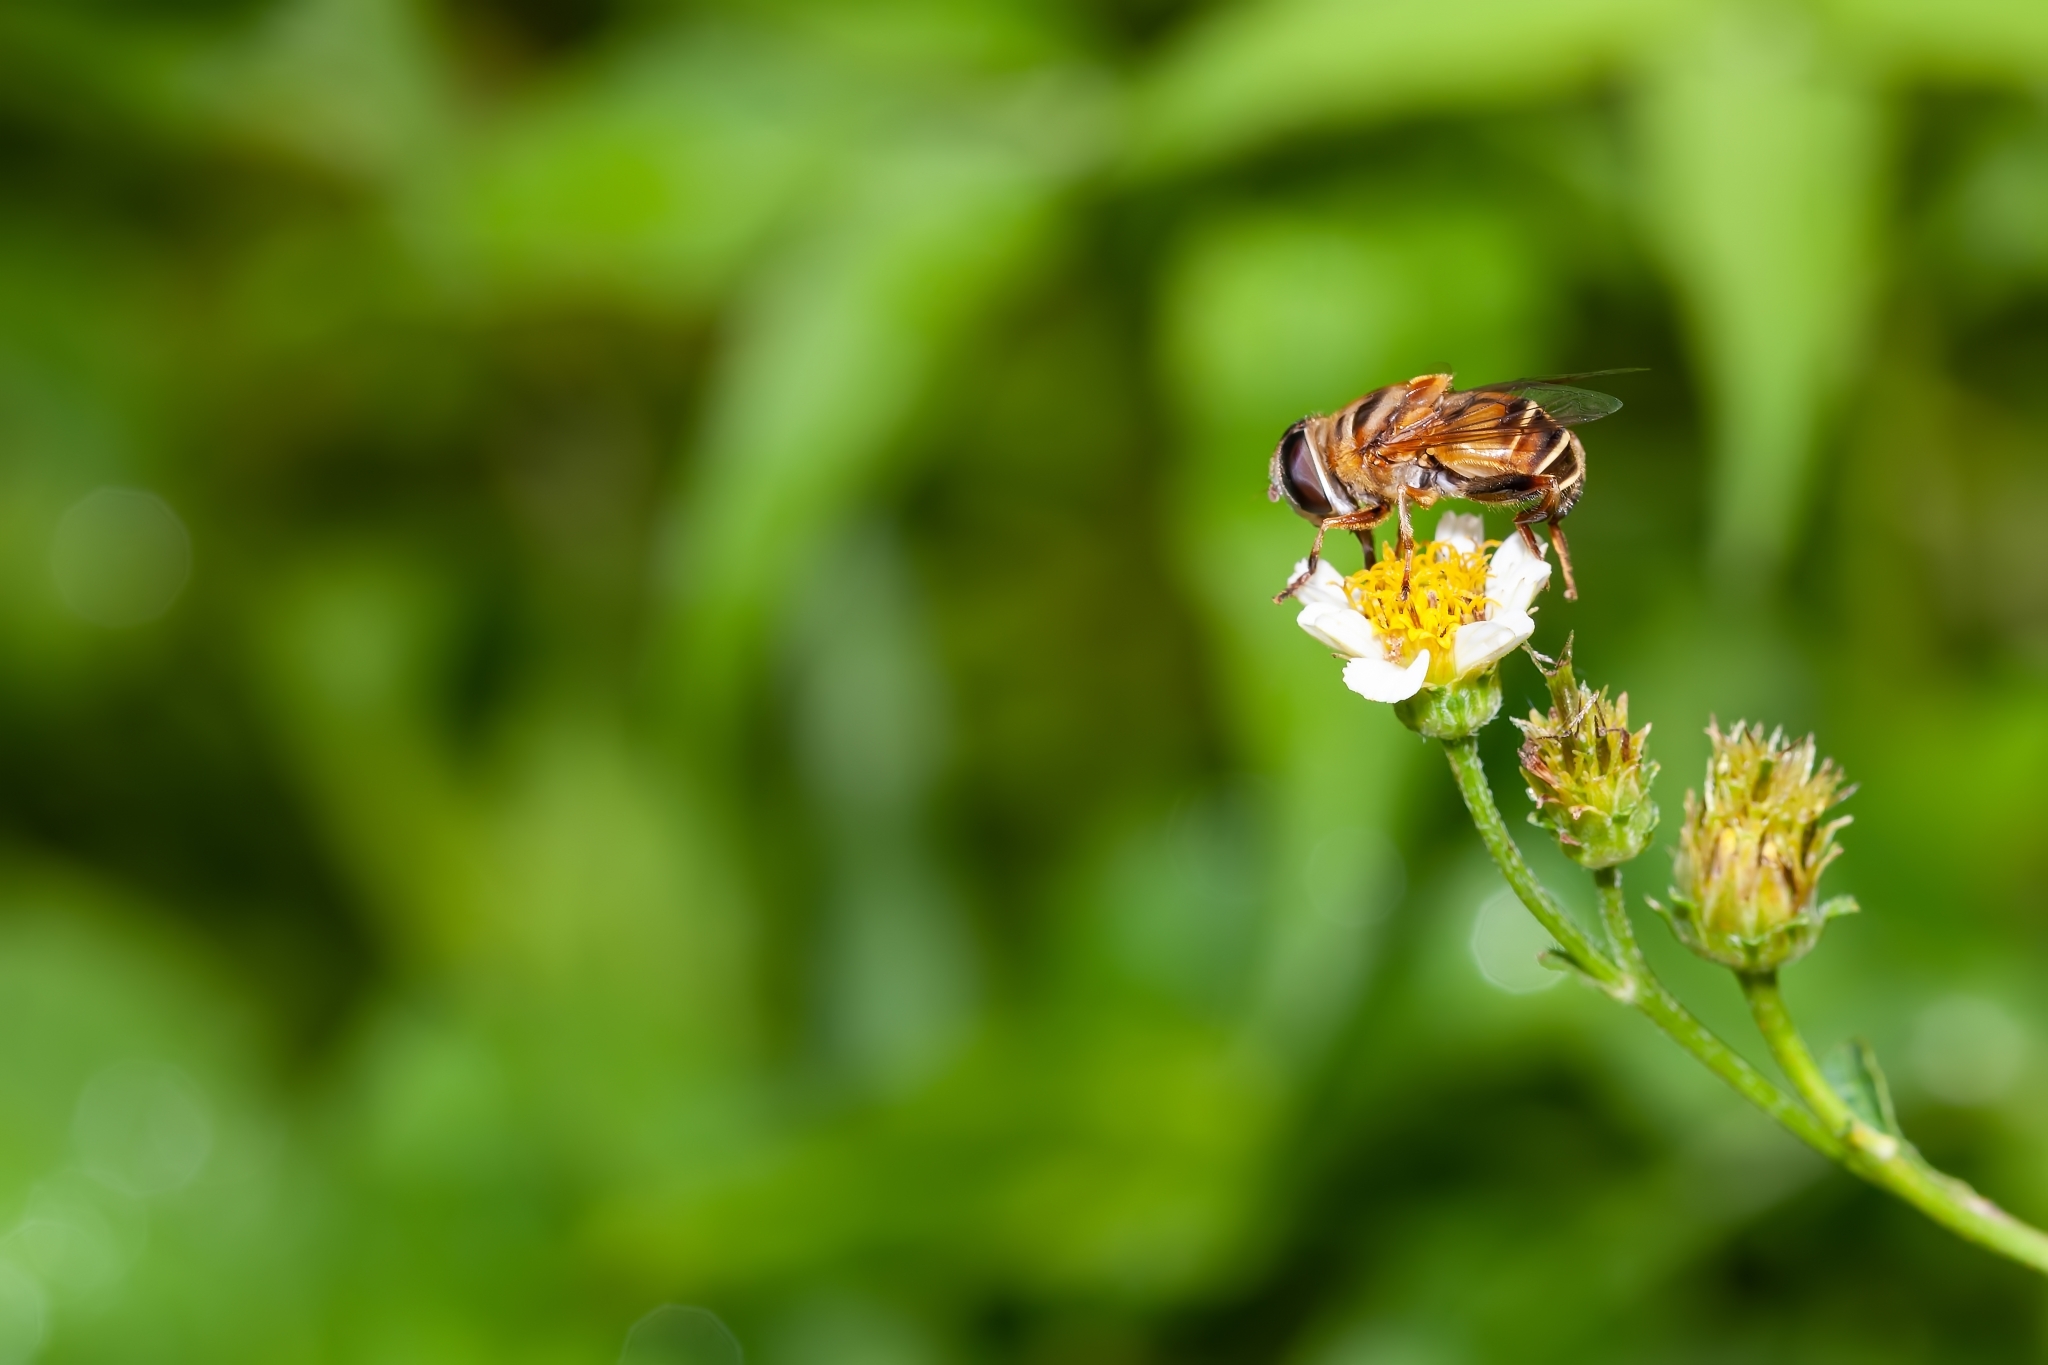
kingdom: Animalia
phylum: Arthropoda
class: Insecta
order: Diptera
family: Syrphidae
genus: Palpada
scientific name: Palpada vinetorum
